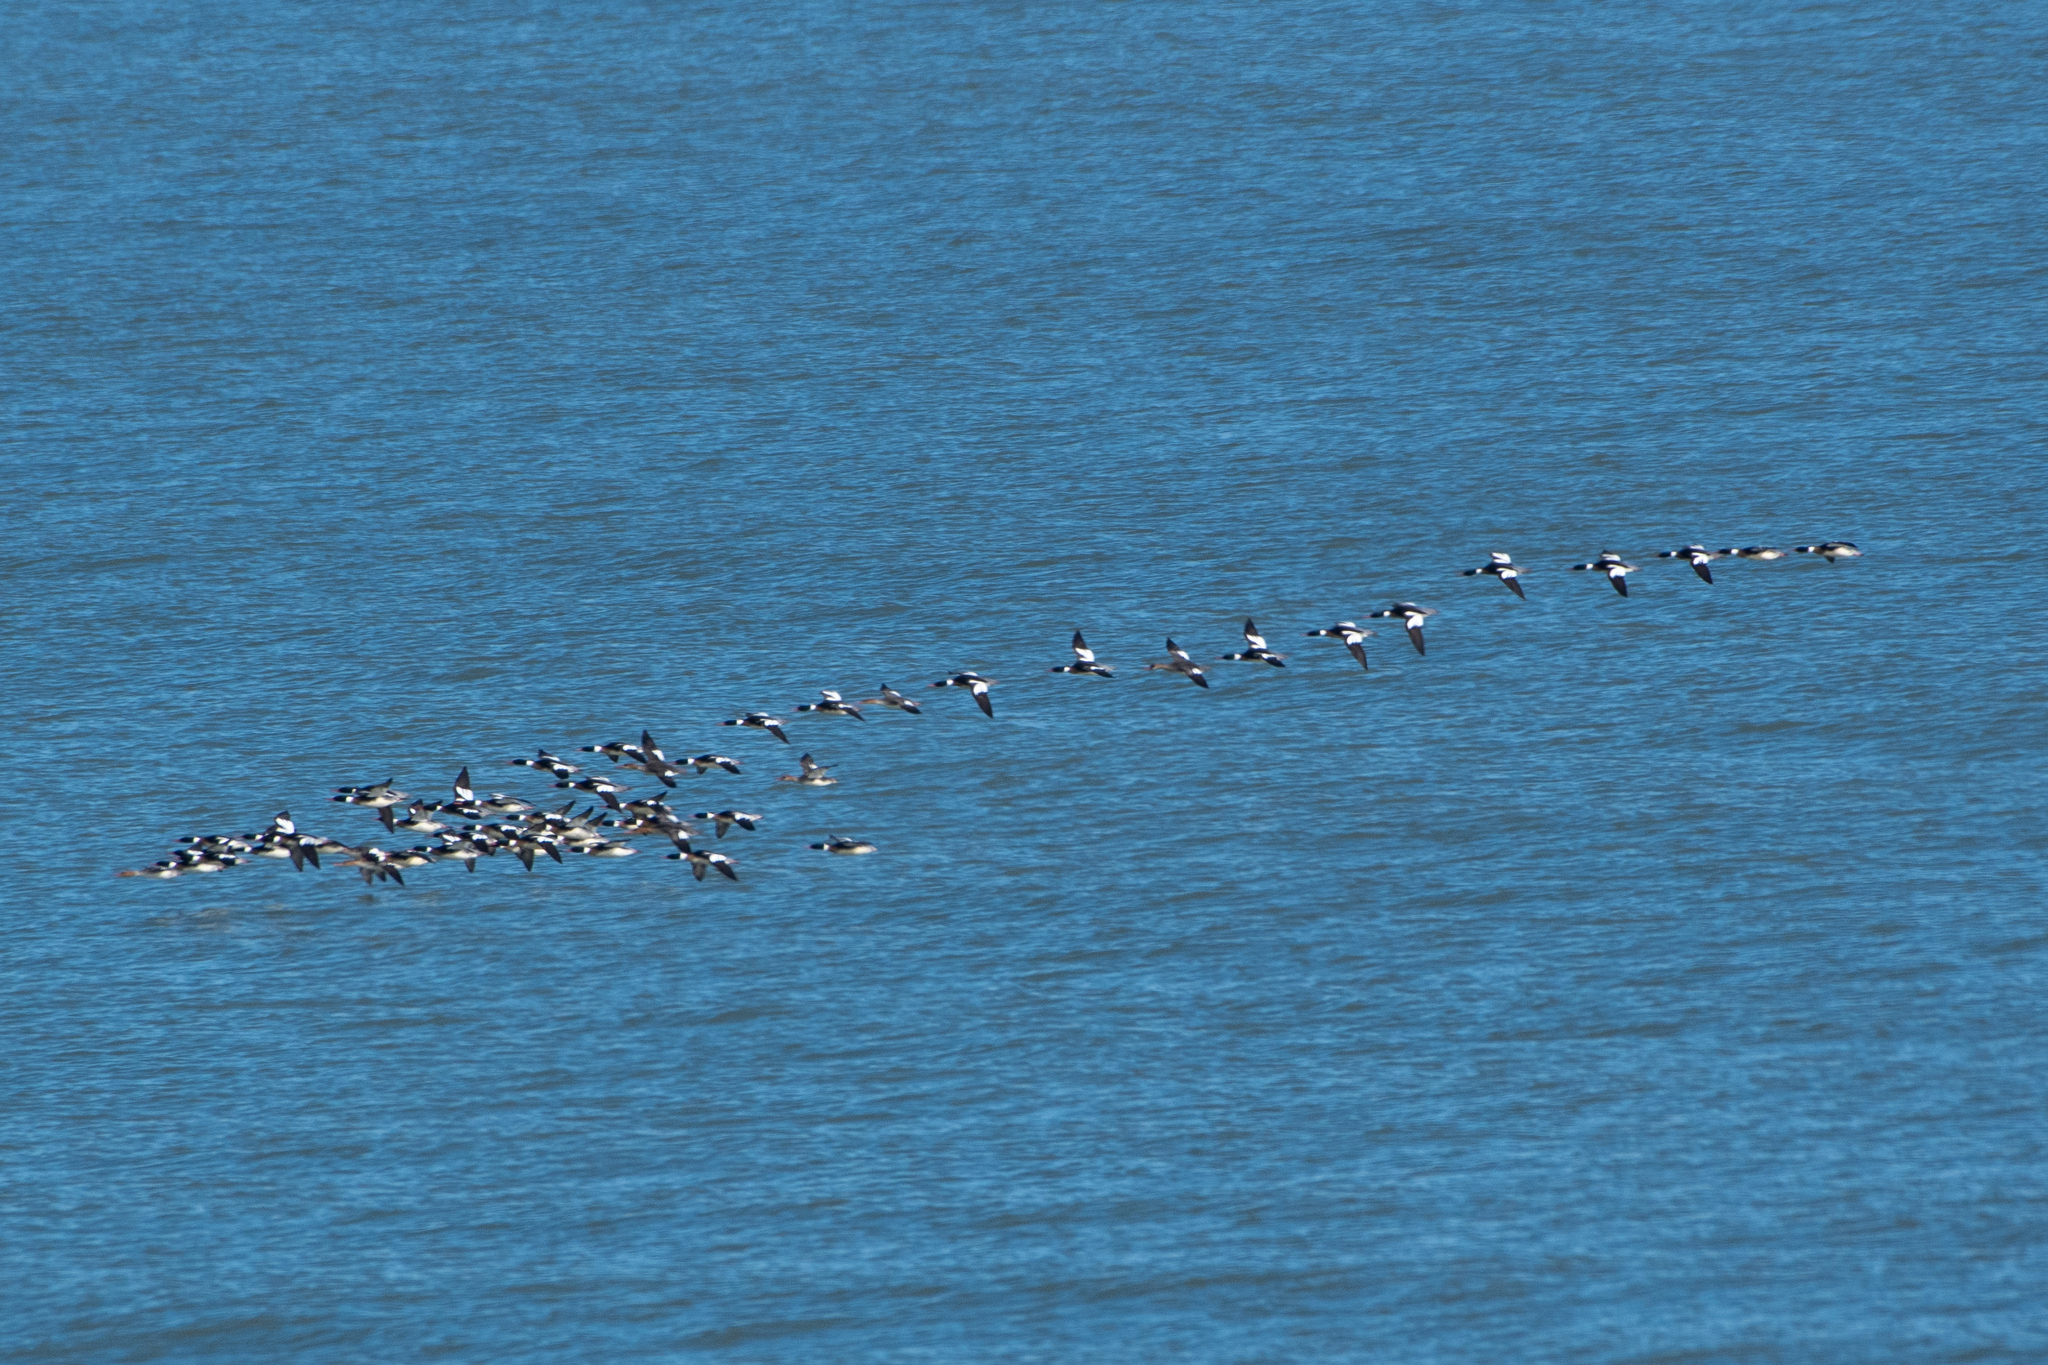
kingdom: Animalia
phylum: Chordata
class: Aves
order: Anseriformes
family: Anatidae
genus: Mergus
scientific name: Mergus serrator
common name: Red-breasted merganser
